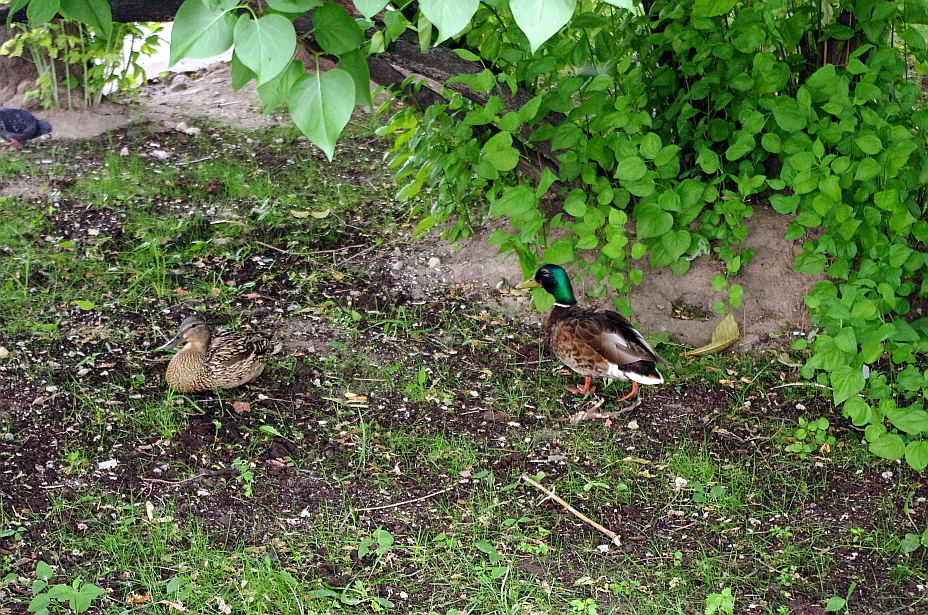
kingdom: Animalia
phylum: Chordata
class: Aves
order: Anseriformes
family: Anatidae
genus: Anas
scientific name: Anas platyrhynchos
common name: Mallard
